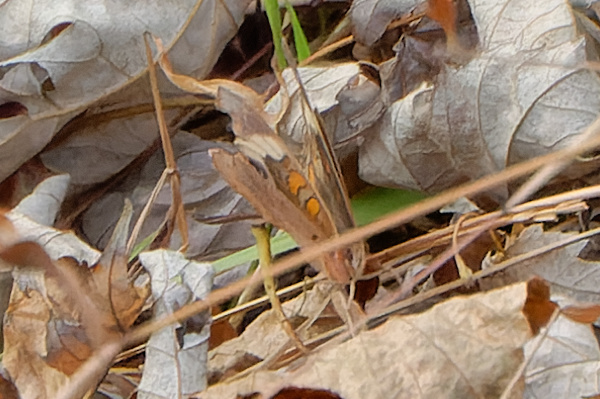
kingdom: Animalia
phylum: Arthropoda
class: Insecta
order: Lepidoptera
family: Nymphalidae
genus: Junonia
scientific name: Junonia coenia
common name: Common buckeye
